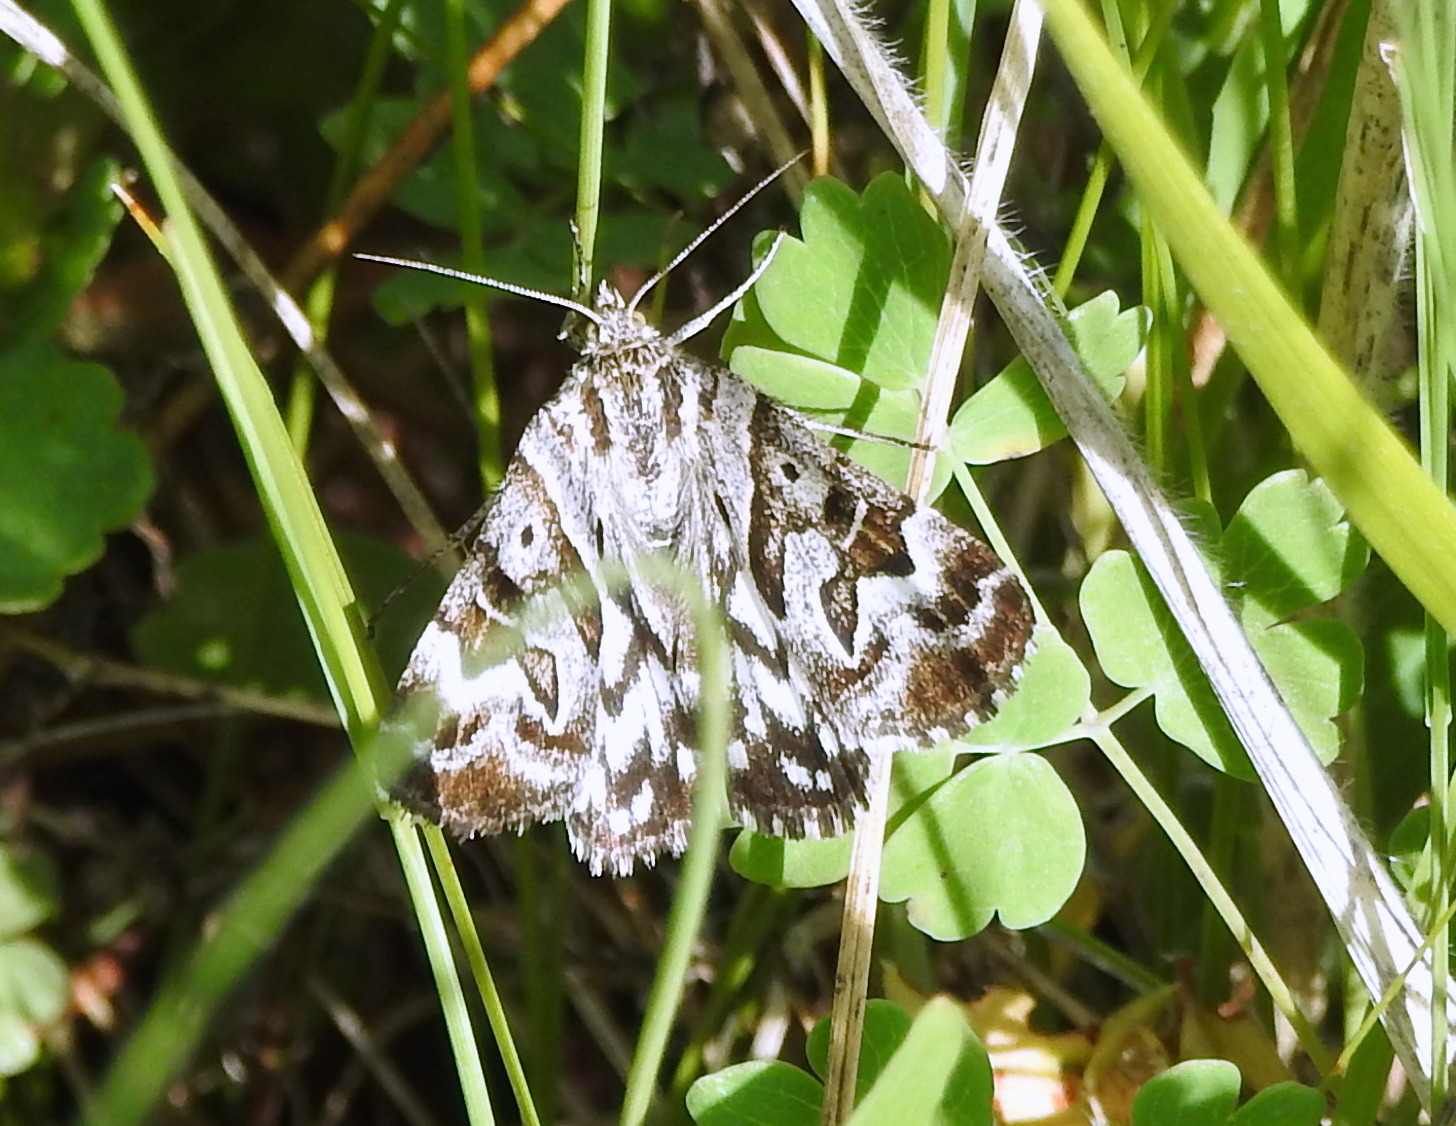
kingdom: Animalia
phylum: Arthropoda
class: Insecta
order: Lepidoptera
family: Erebidae
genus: Callistege
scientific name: Callistege mi
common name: Mother shipton
